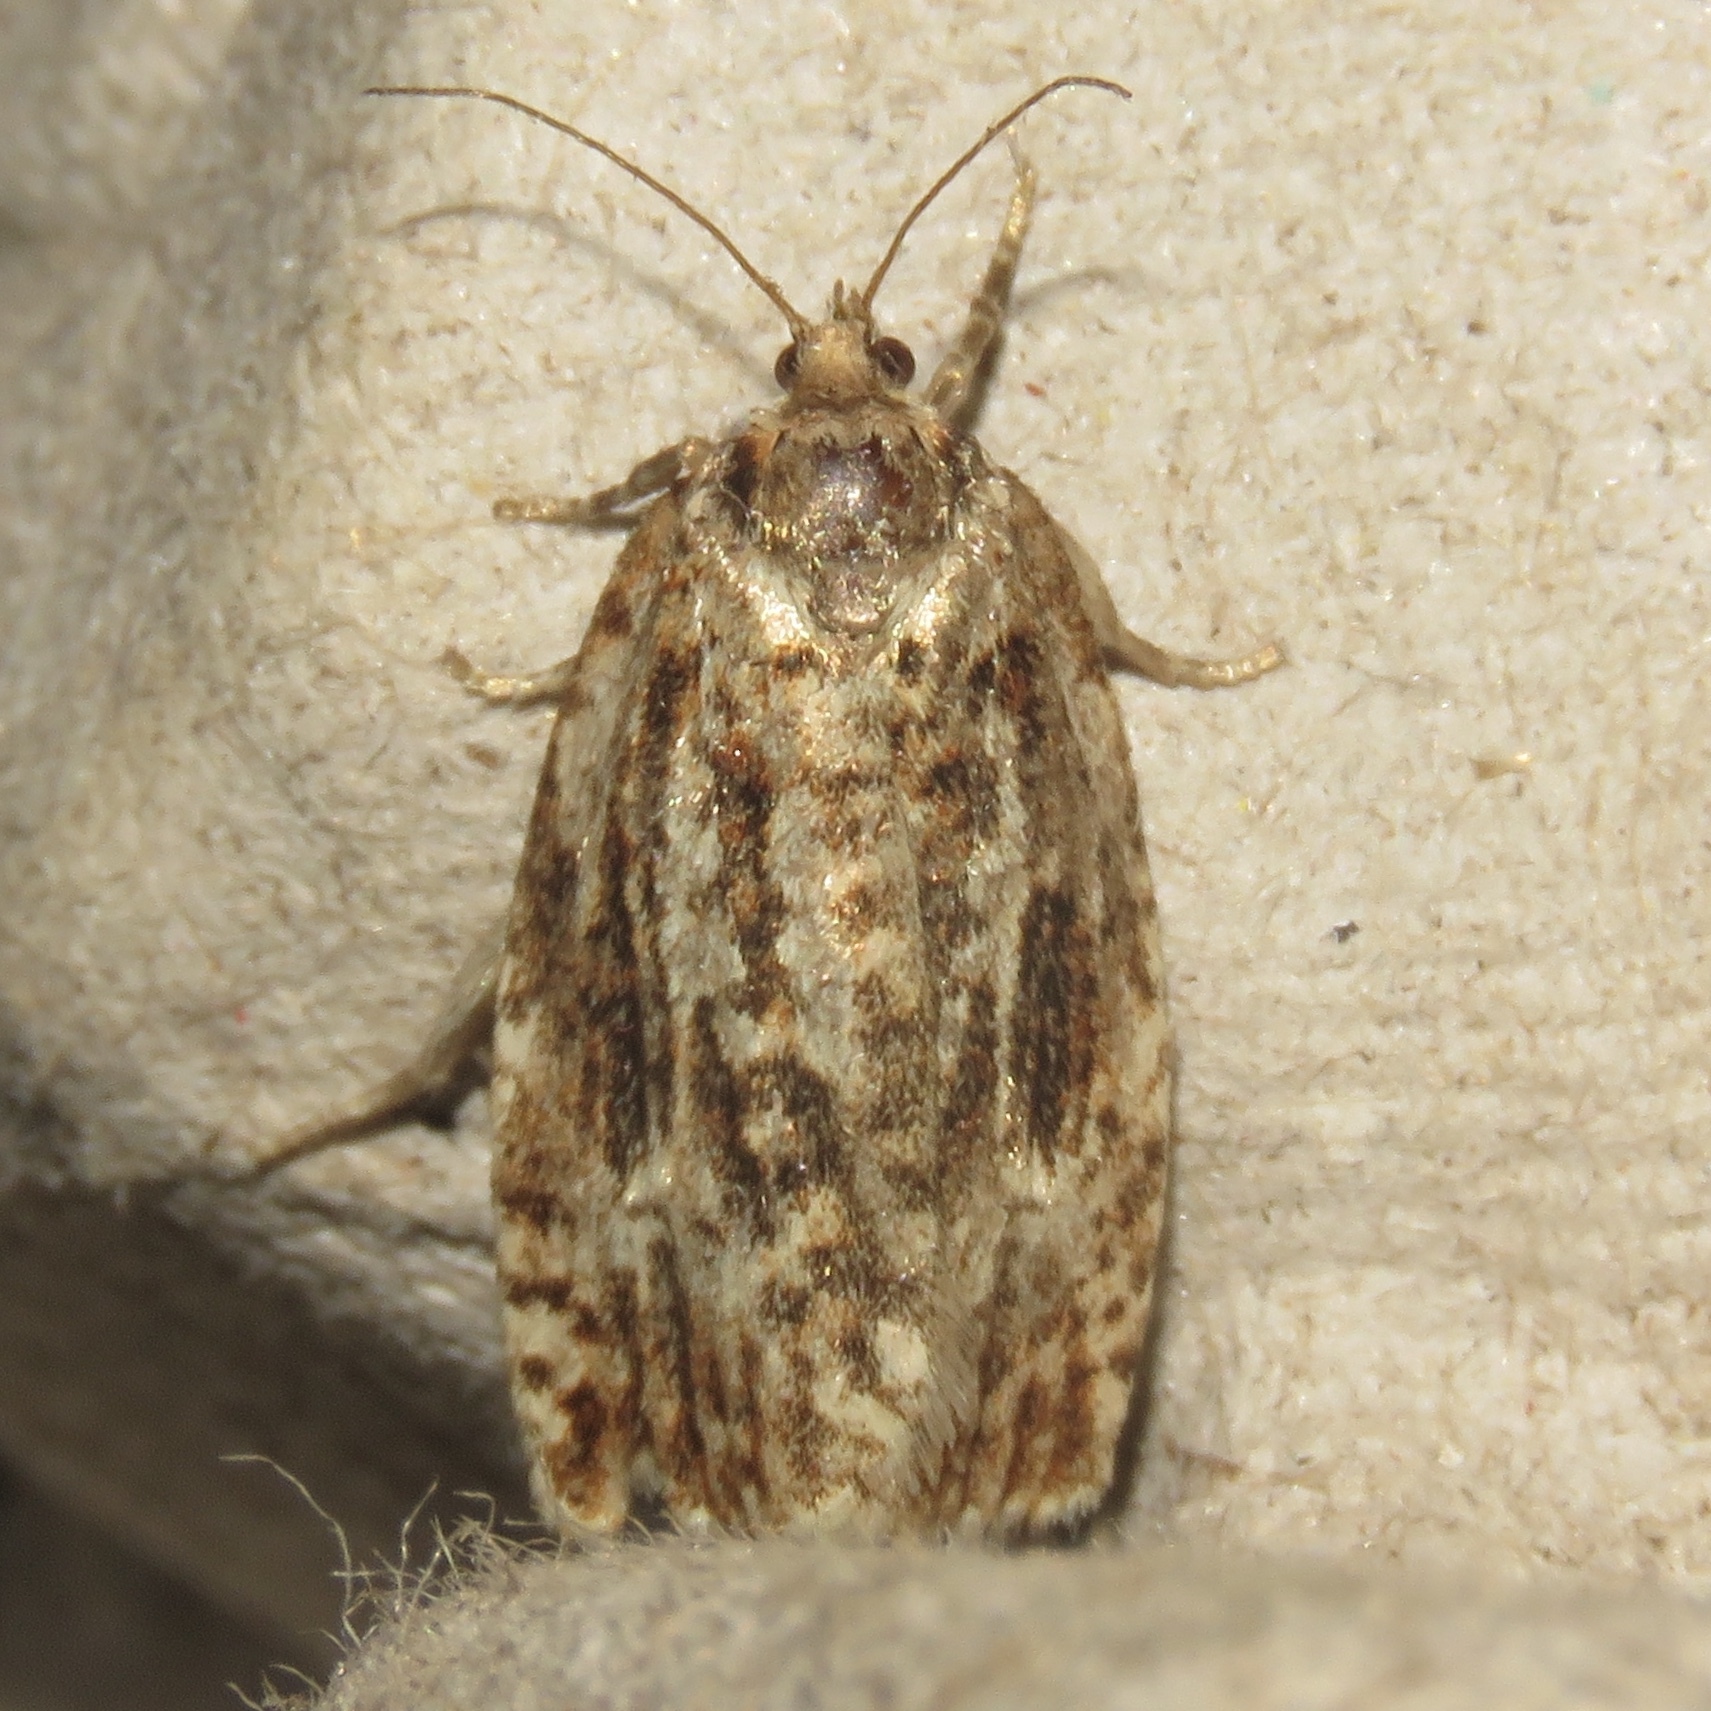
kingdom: Animalia
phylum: Arthropoda
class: Insecta
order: Lepidoptera
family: Tortricidae
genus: Choristoneura
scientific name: Choristoneura fumiferana
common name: Spruce budworm
